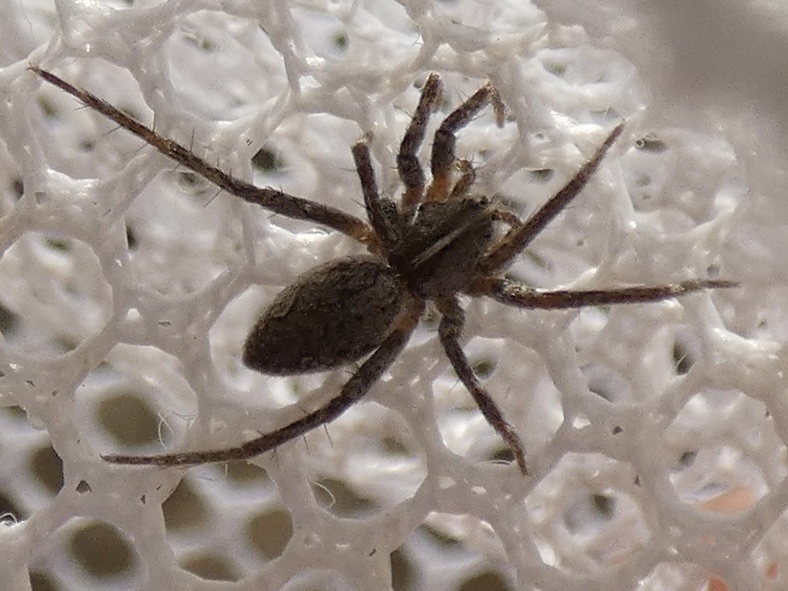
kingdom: Animalia
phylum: Arthropoda
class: Arachnida
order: Araneae
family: Pisauridae
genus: Pisaura
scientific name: Pisaura mirabilis
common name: Tent spider
